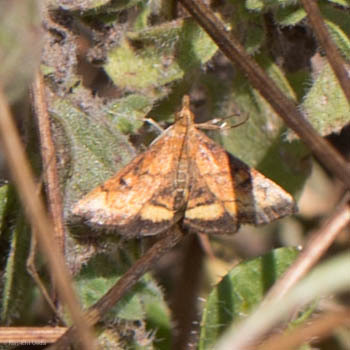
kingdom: Animalia
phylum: Arthropoda
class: Insecta
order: Lepidoptera
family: Crambidae
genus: Pyrausta
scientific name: Pyrausta californicalis
